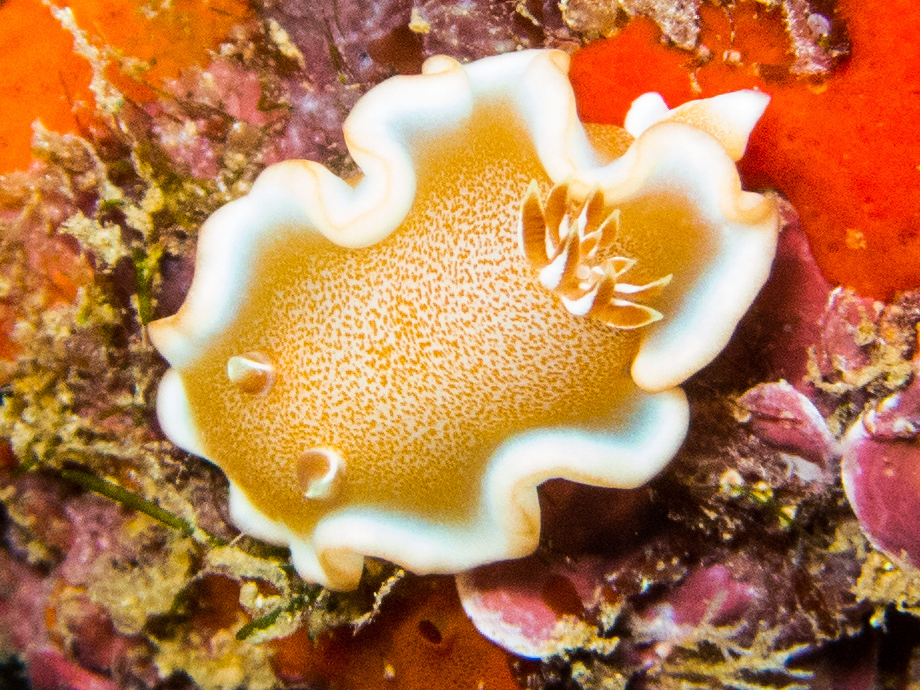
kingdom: Animalia
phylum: Mollusca
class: Gastropoda
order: Nudibranchia
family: Chromodorididae
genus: Glossodoris
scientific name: Glossodoris rufomarginata
